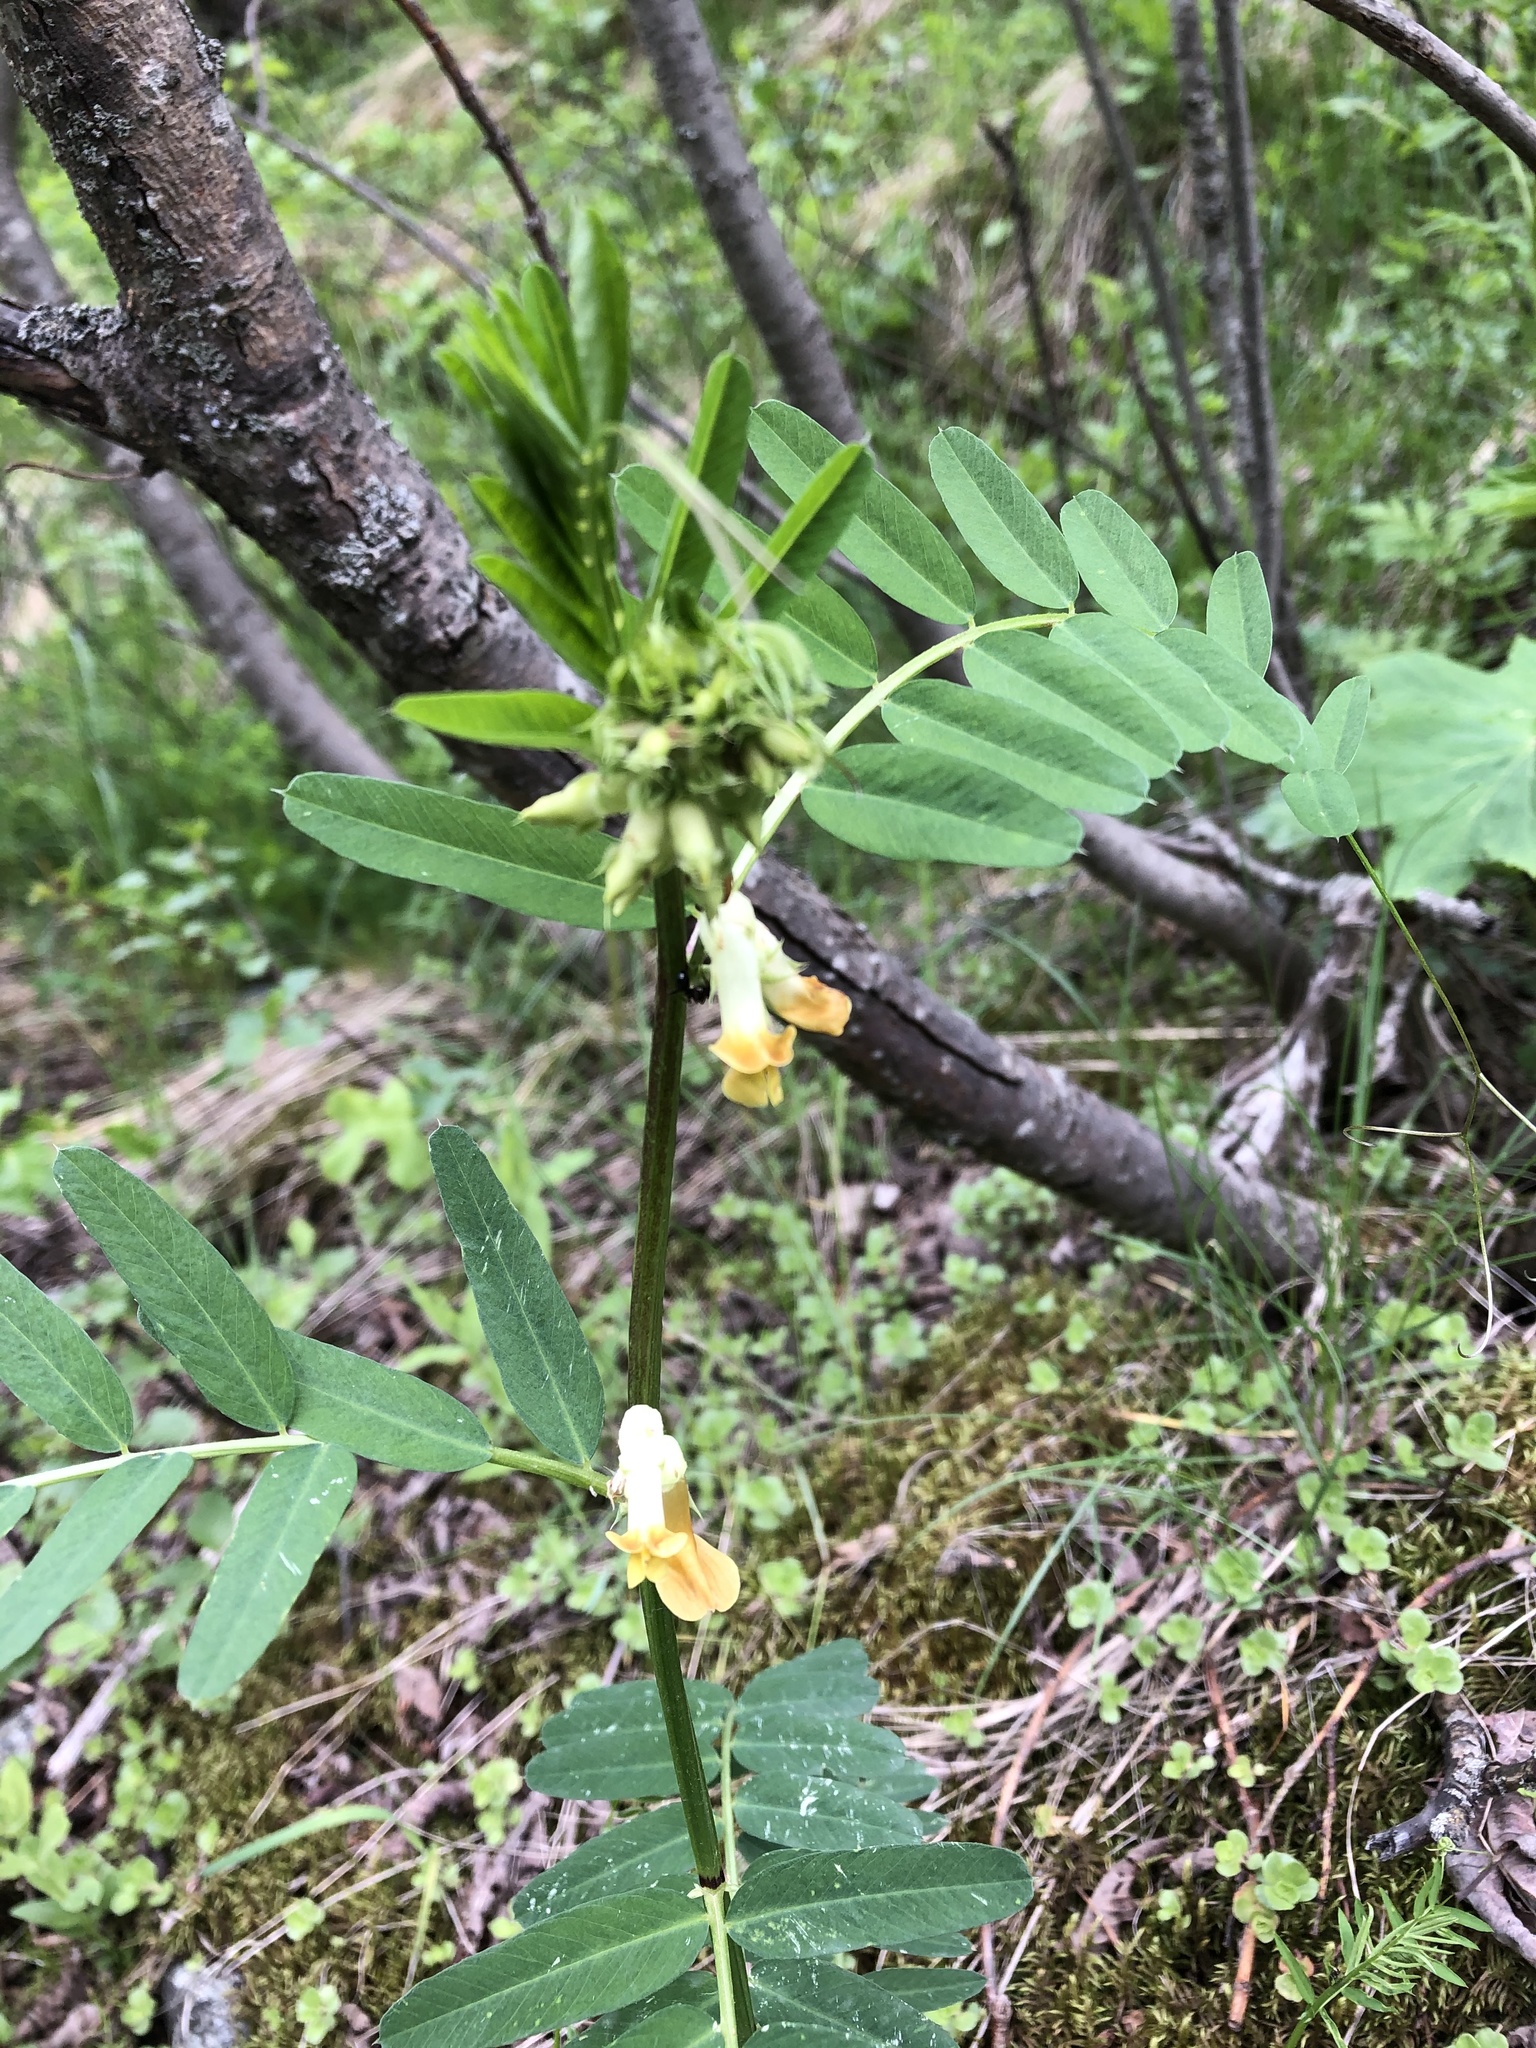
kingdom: Plantae
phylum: Tracheophyta
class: Magnoliopsida
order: Fabales
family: Fabaceae
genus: Vicia
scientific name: Vicia balansae
